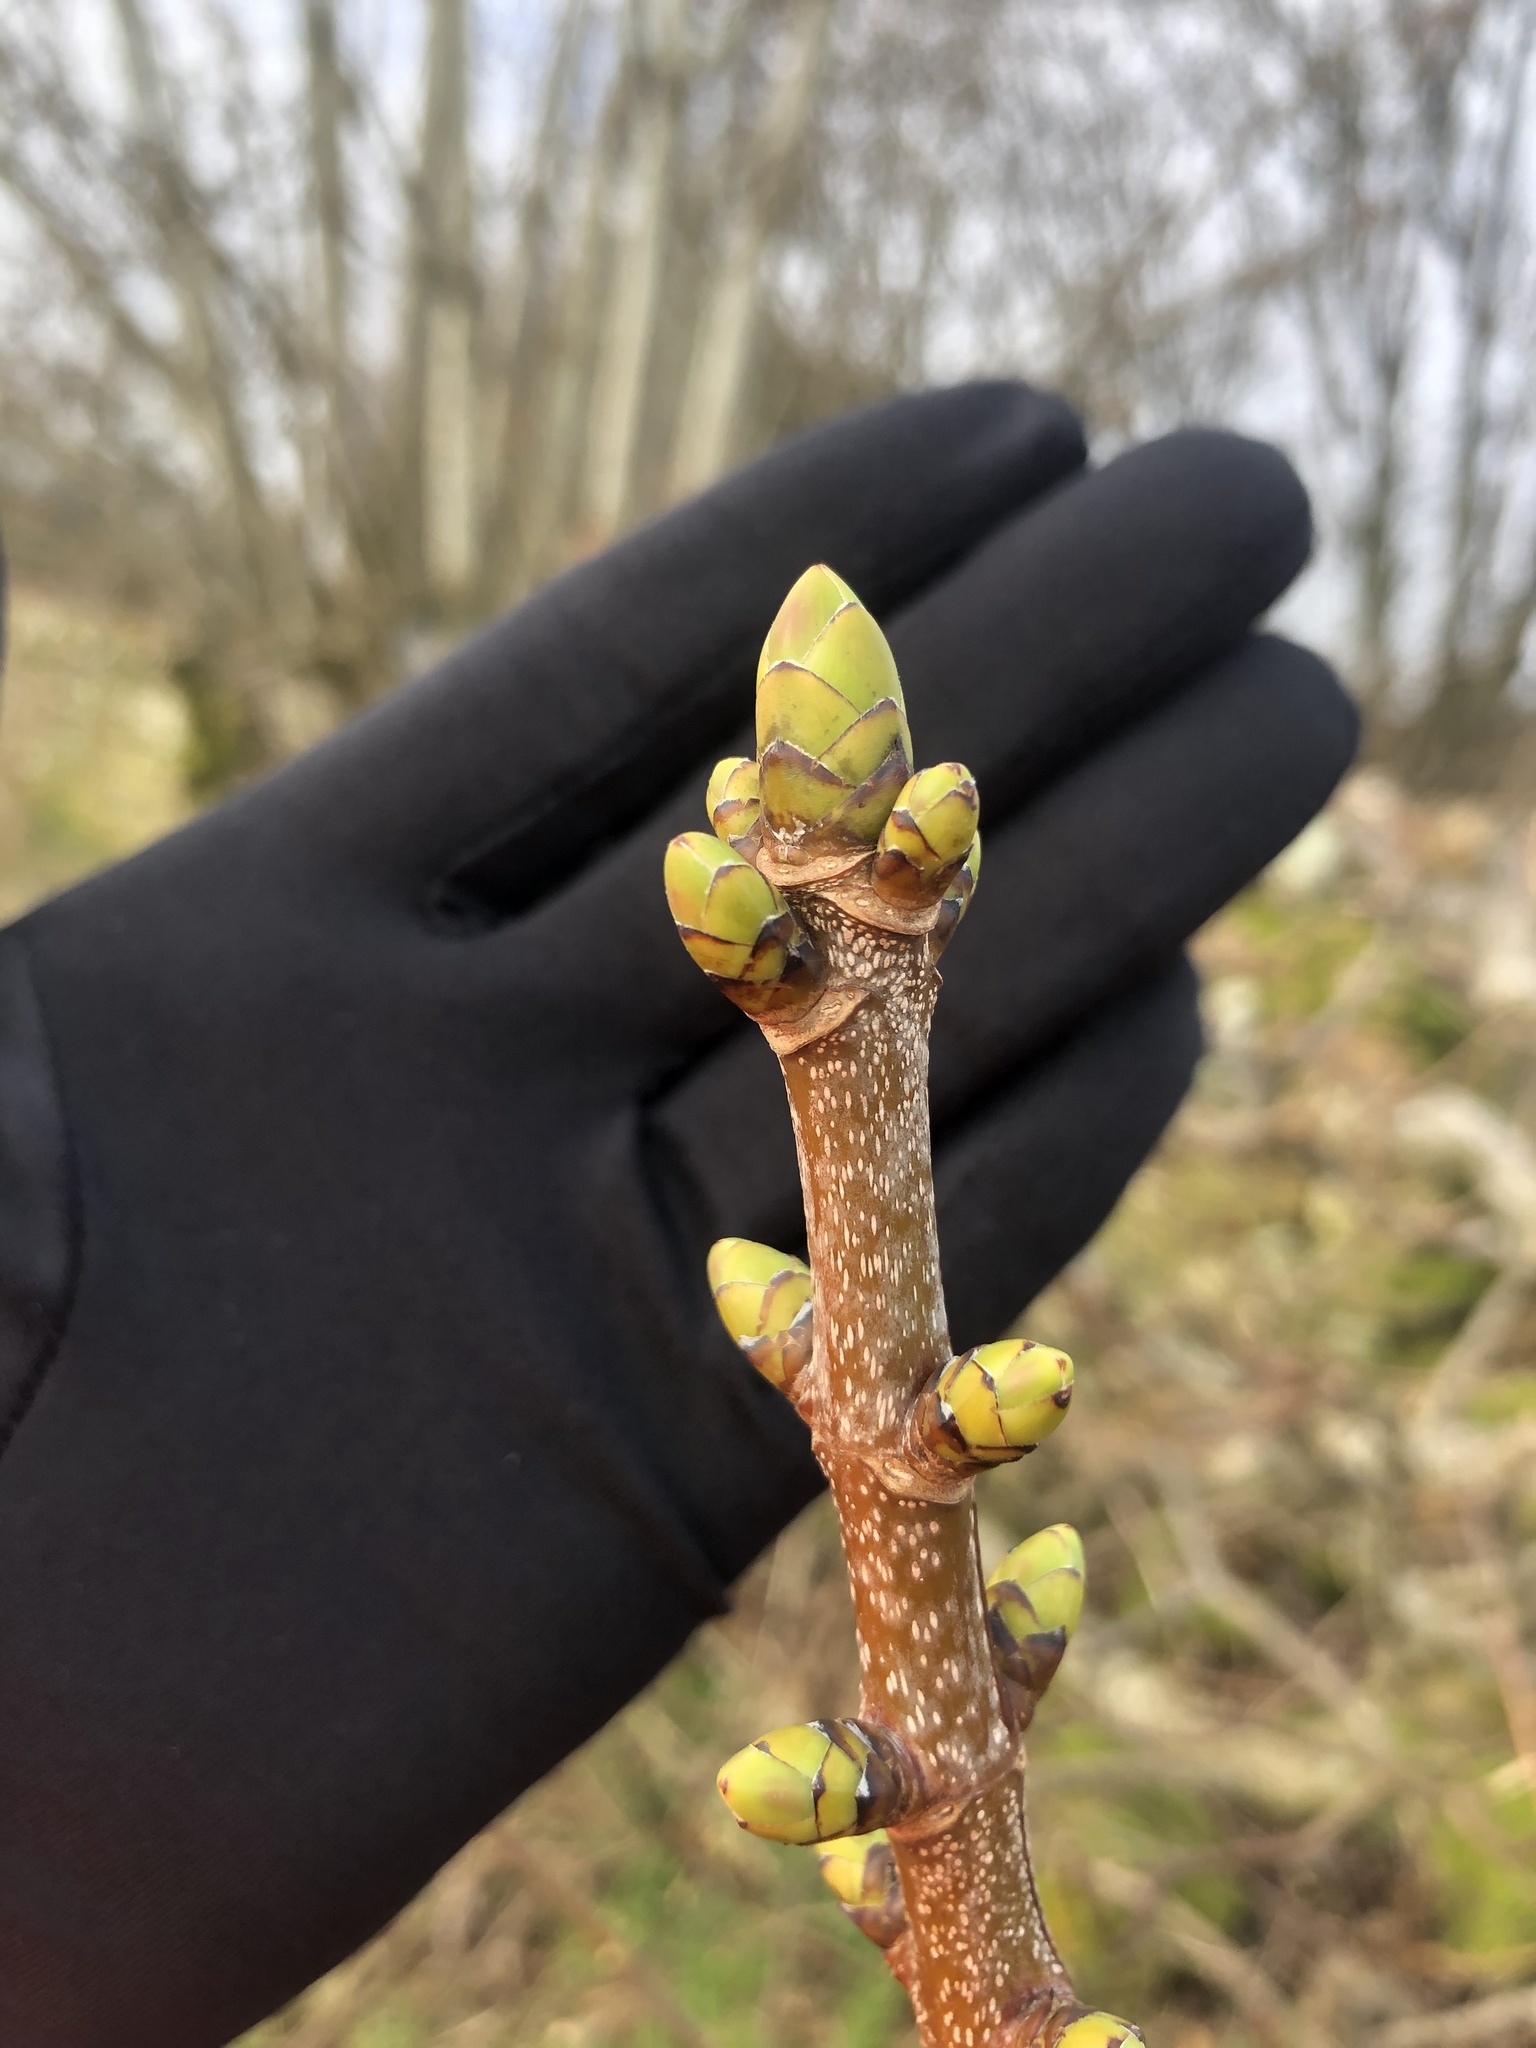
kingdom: Plantae
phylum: Tracheophyta
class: Magnoliopsida
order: Sapindales
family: Sapindaceae
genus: Acer
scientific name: Acer pseudoplatanus
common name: Sycamore
